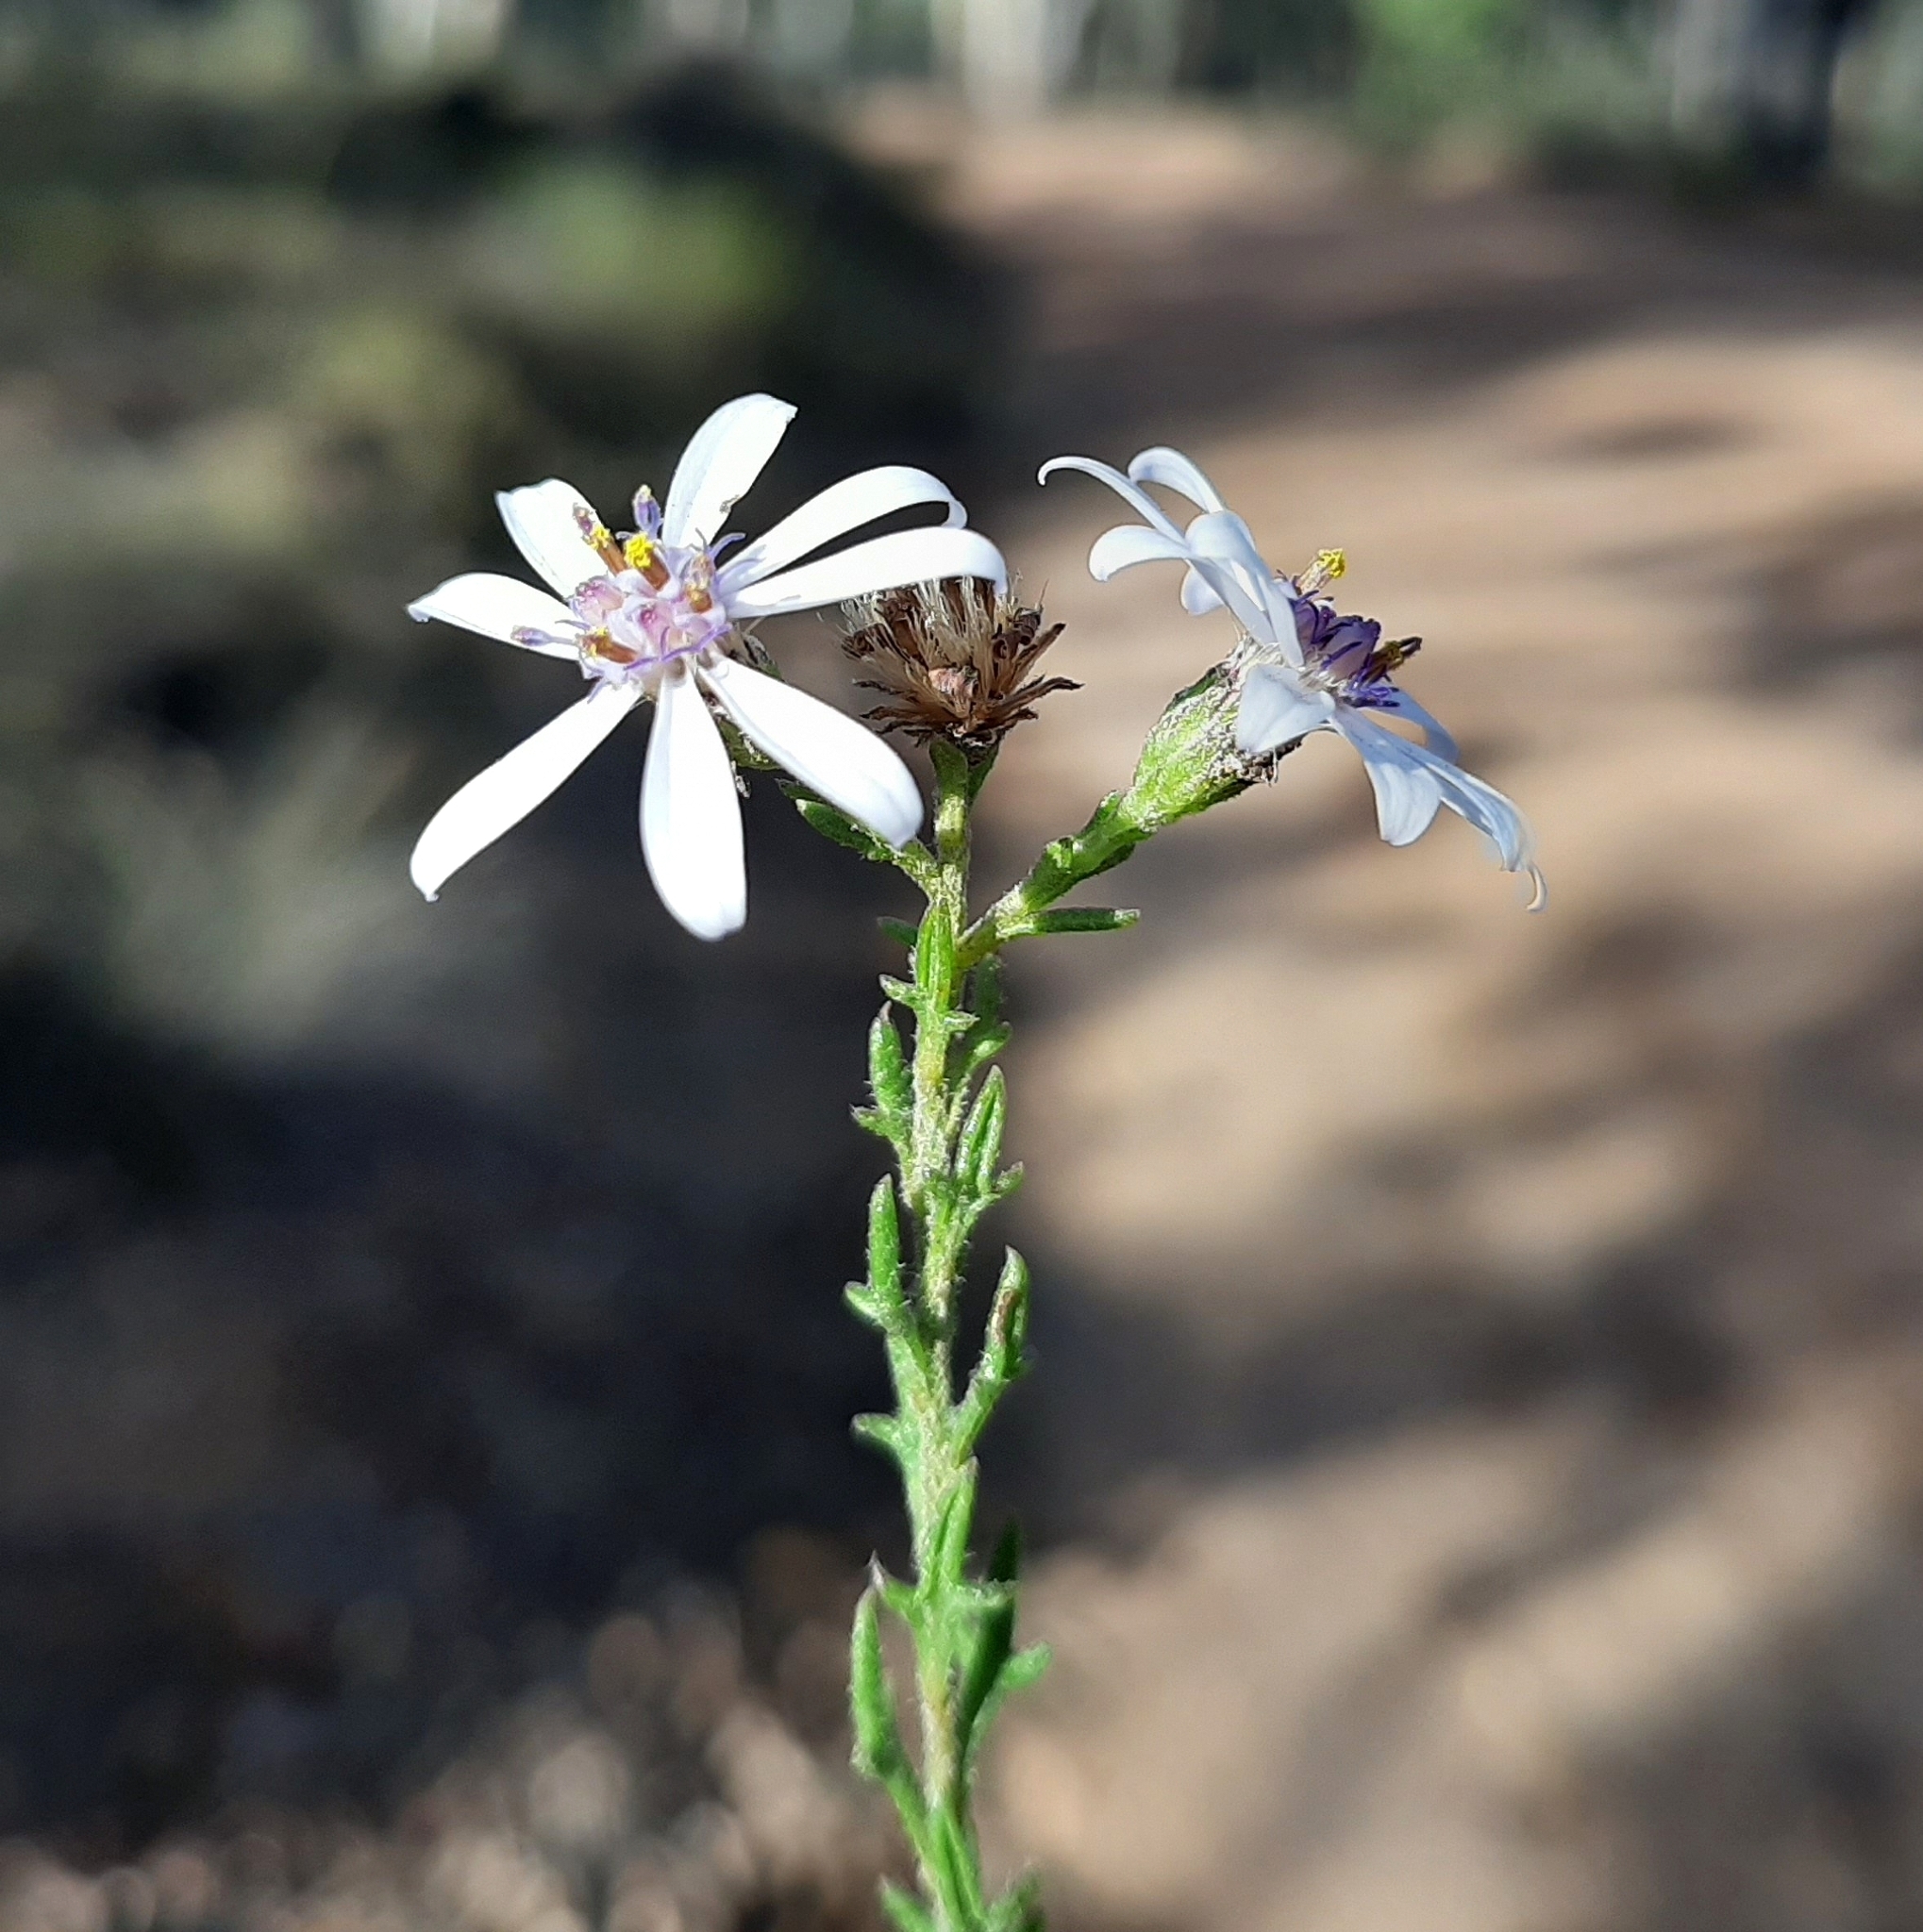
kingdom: Plantae
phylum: Tracheophyta
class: Magnoliopsida
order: Asterales
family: Asteraceae
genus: Olearia
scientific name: Olearia paucidentata
